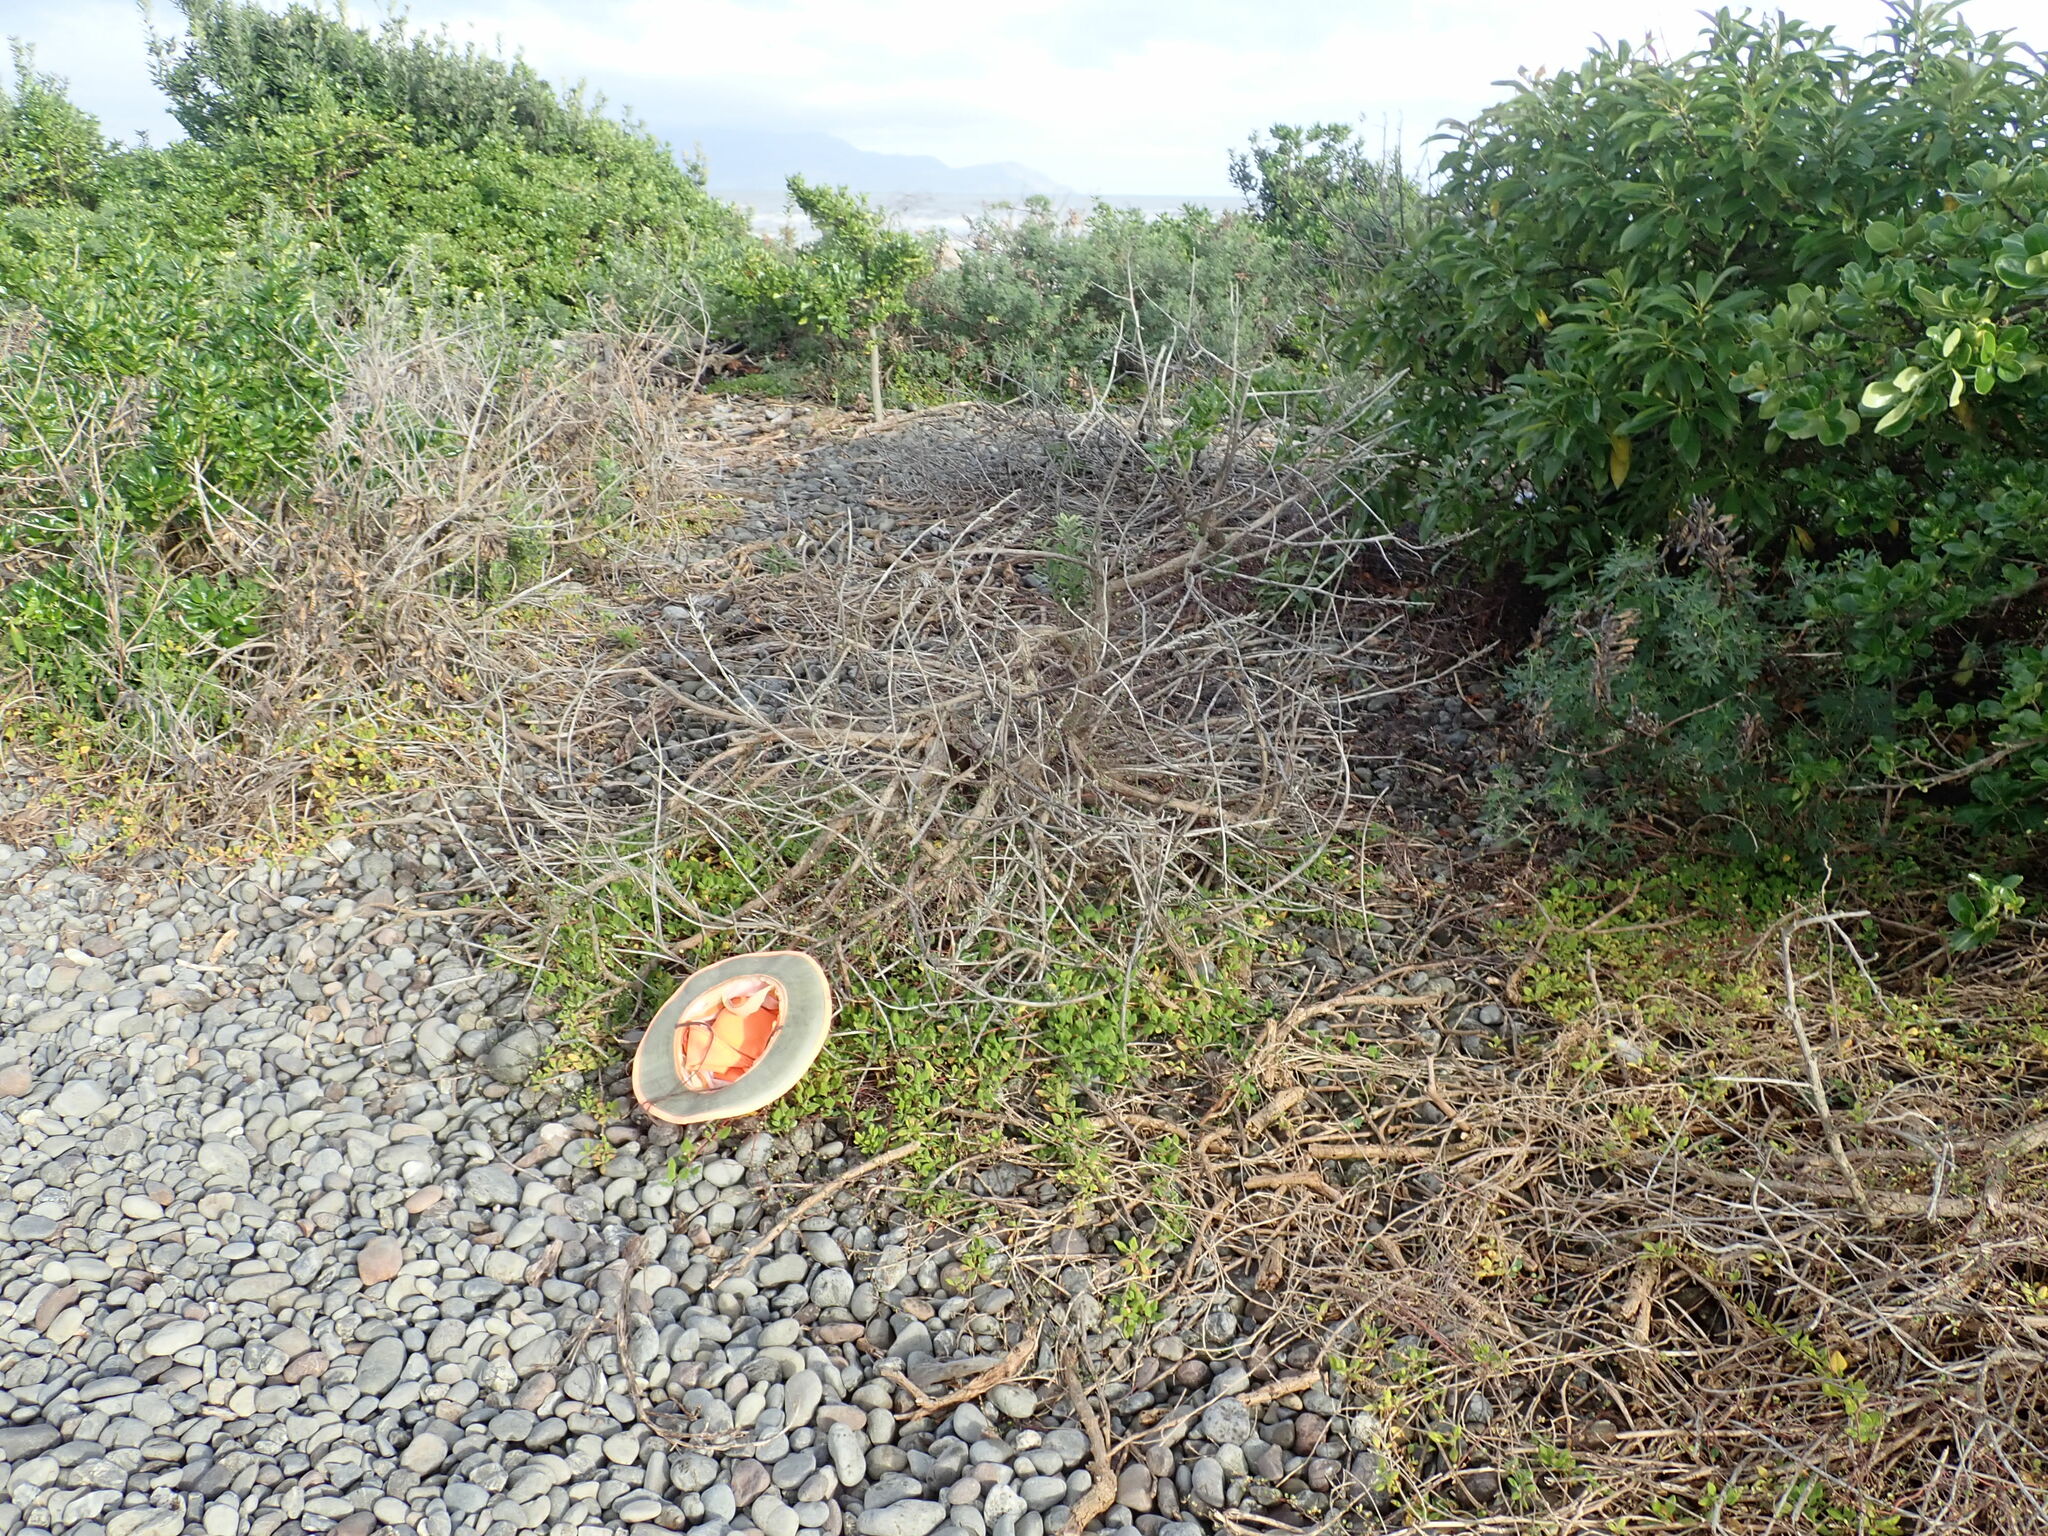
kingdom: Plantae
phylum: Tracheophyta
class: Magnoliopsida
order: Caryophyllales
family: Aizoaceae
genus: Tetragonia
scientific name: Tetragonia implexicoma
